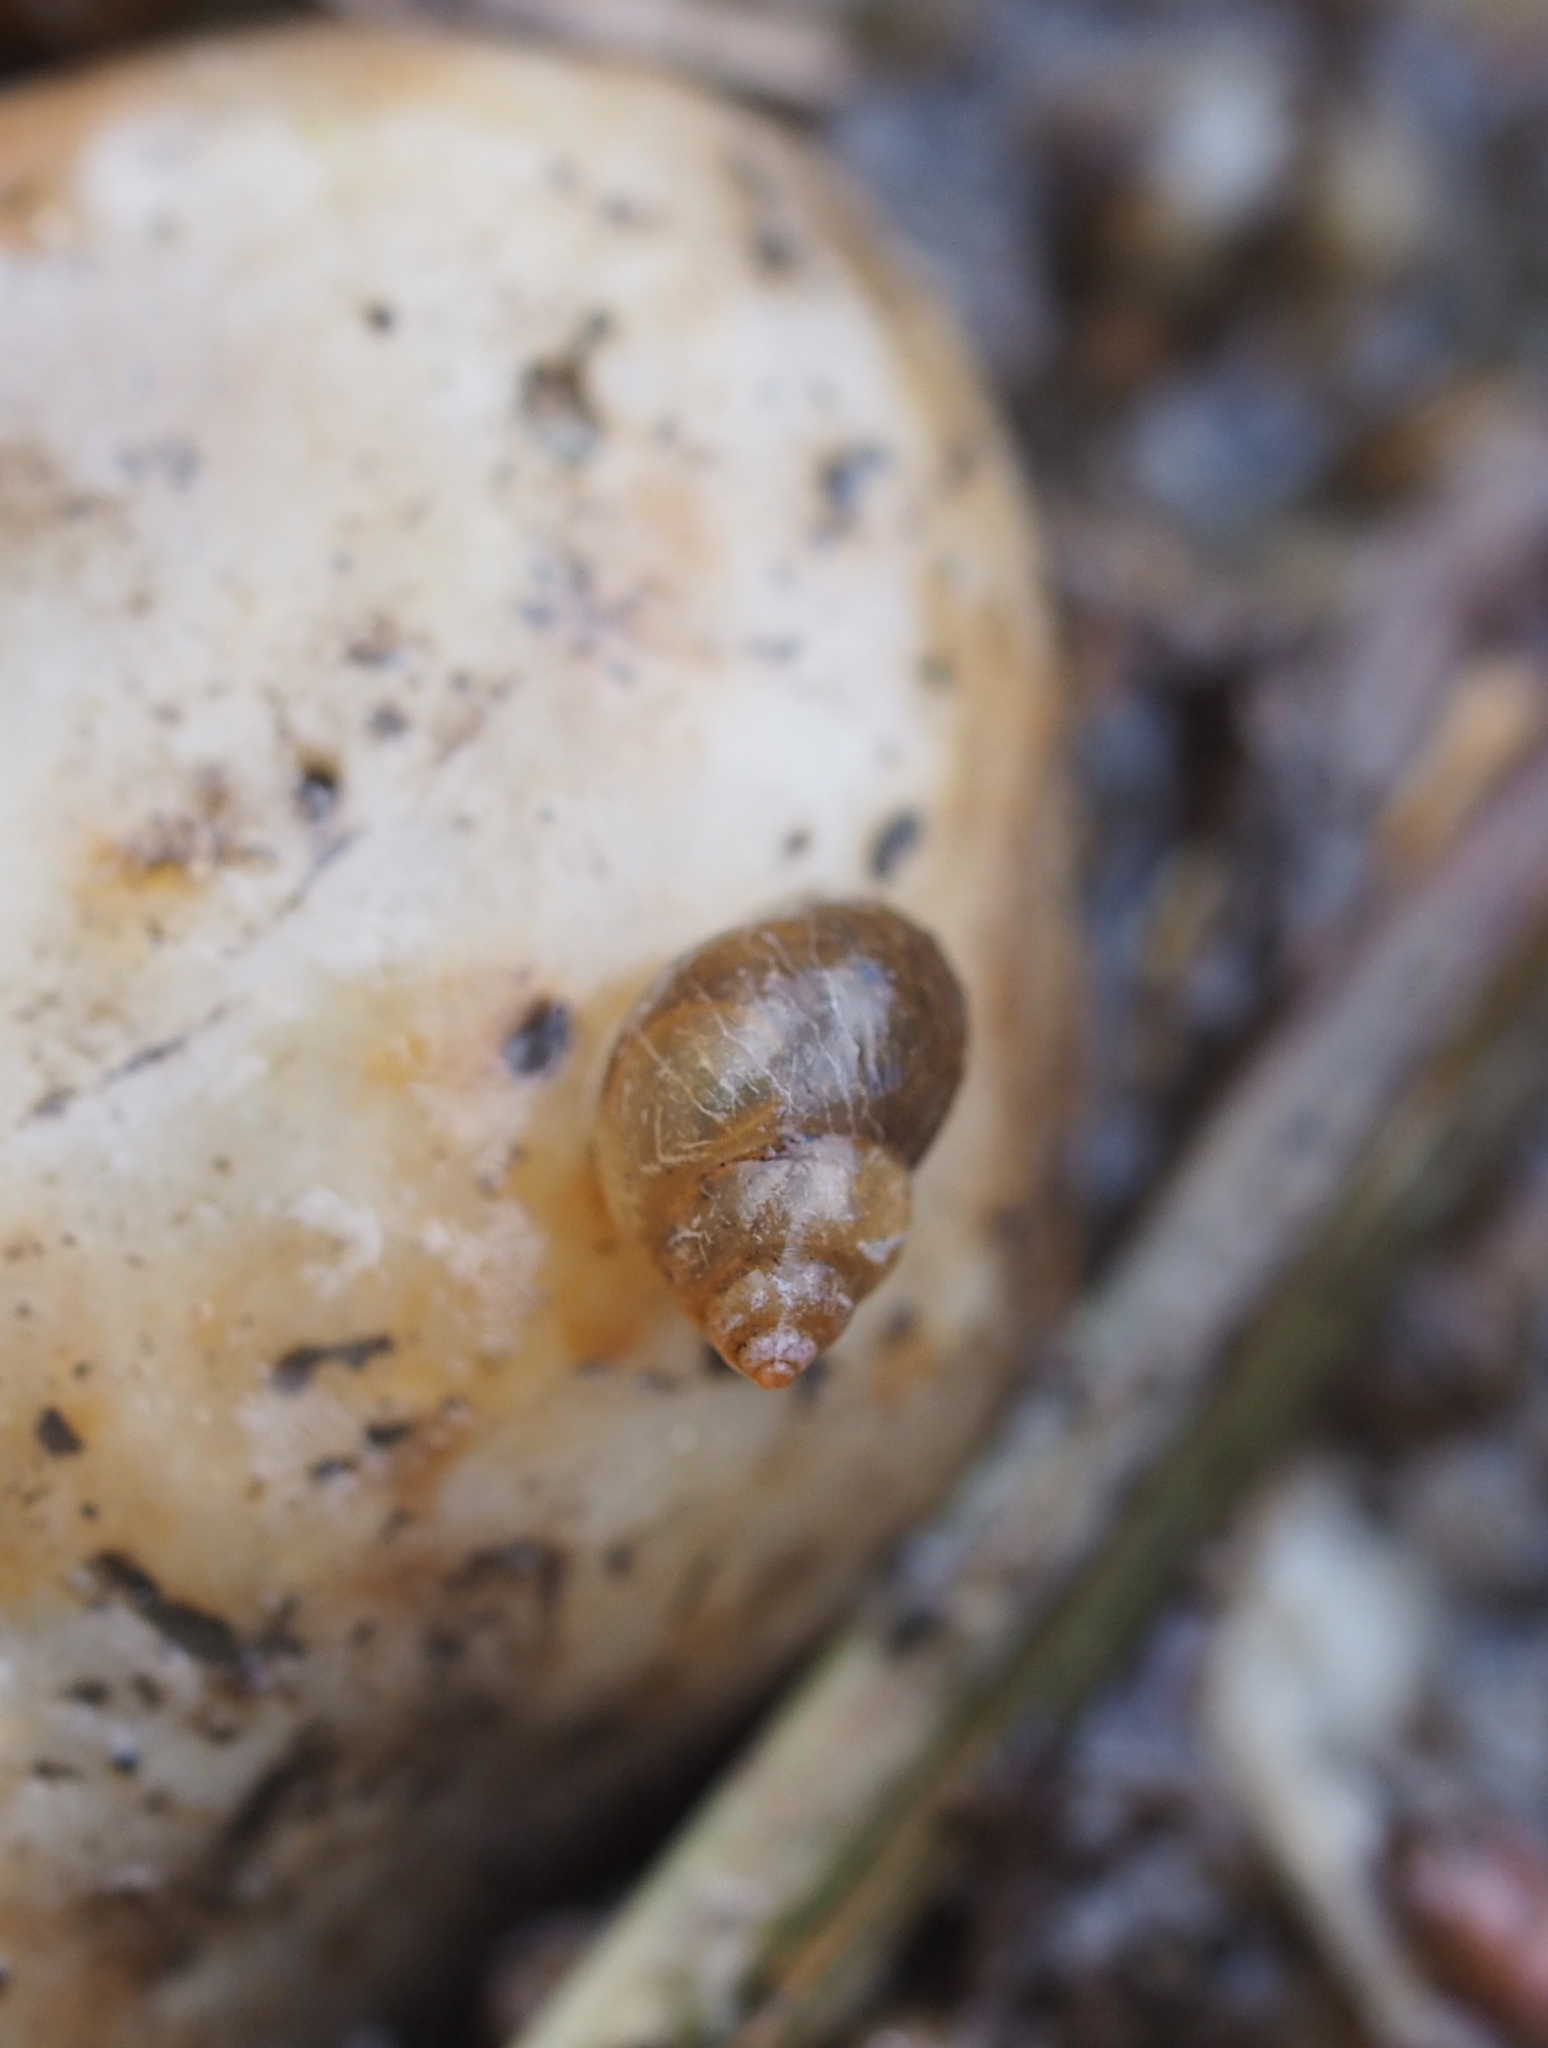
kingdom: Animalia
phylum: Mollusca
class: Gastropoda
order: Littorinimorpha
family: Bithyniidae
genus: Bithynia
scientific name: Bithynia tentaculata
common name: Common bithynia
